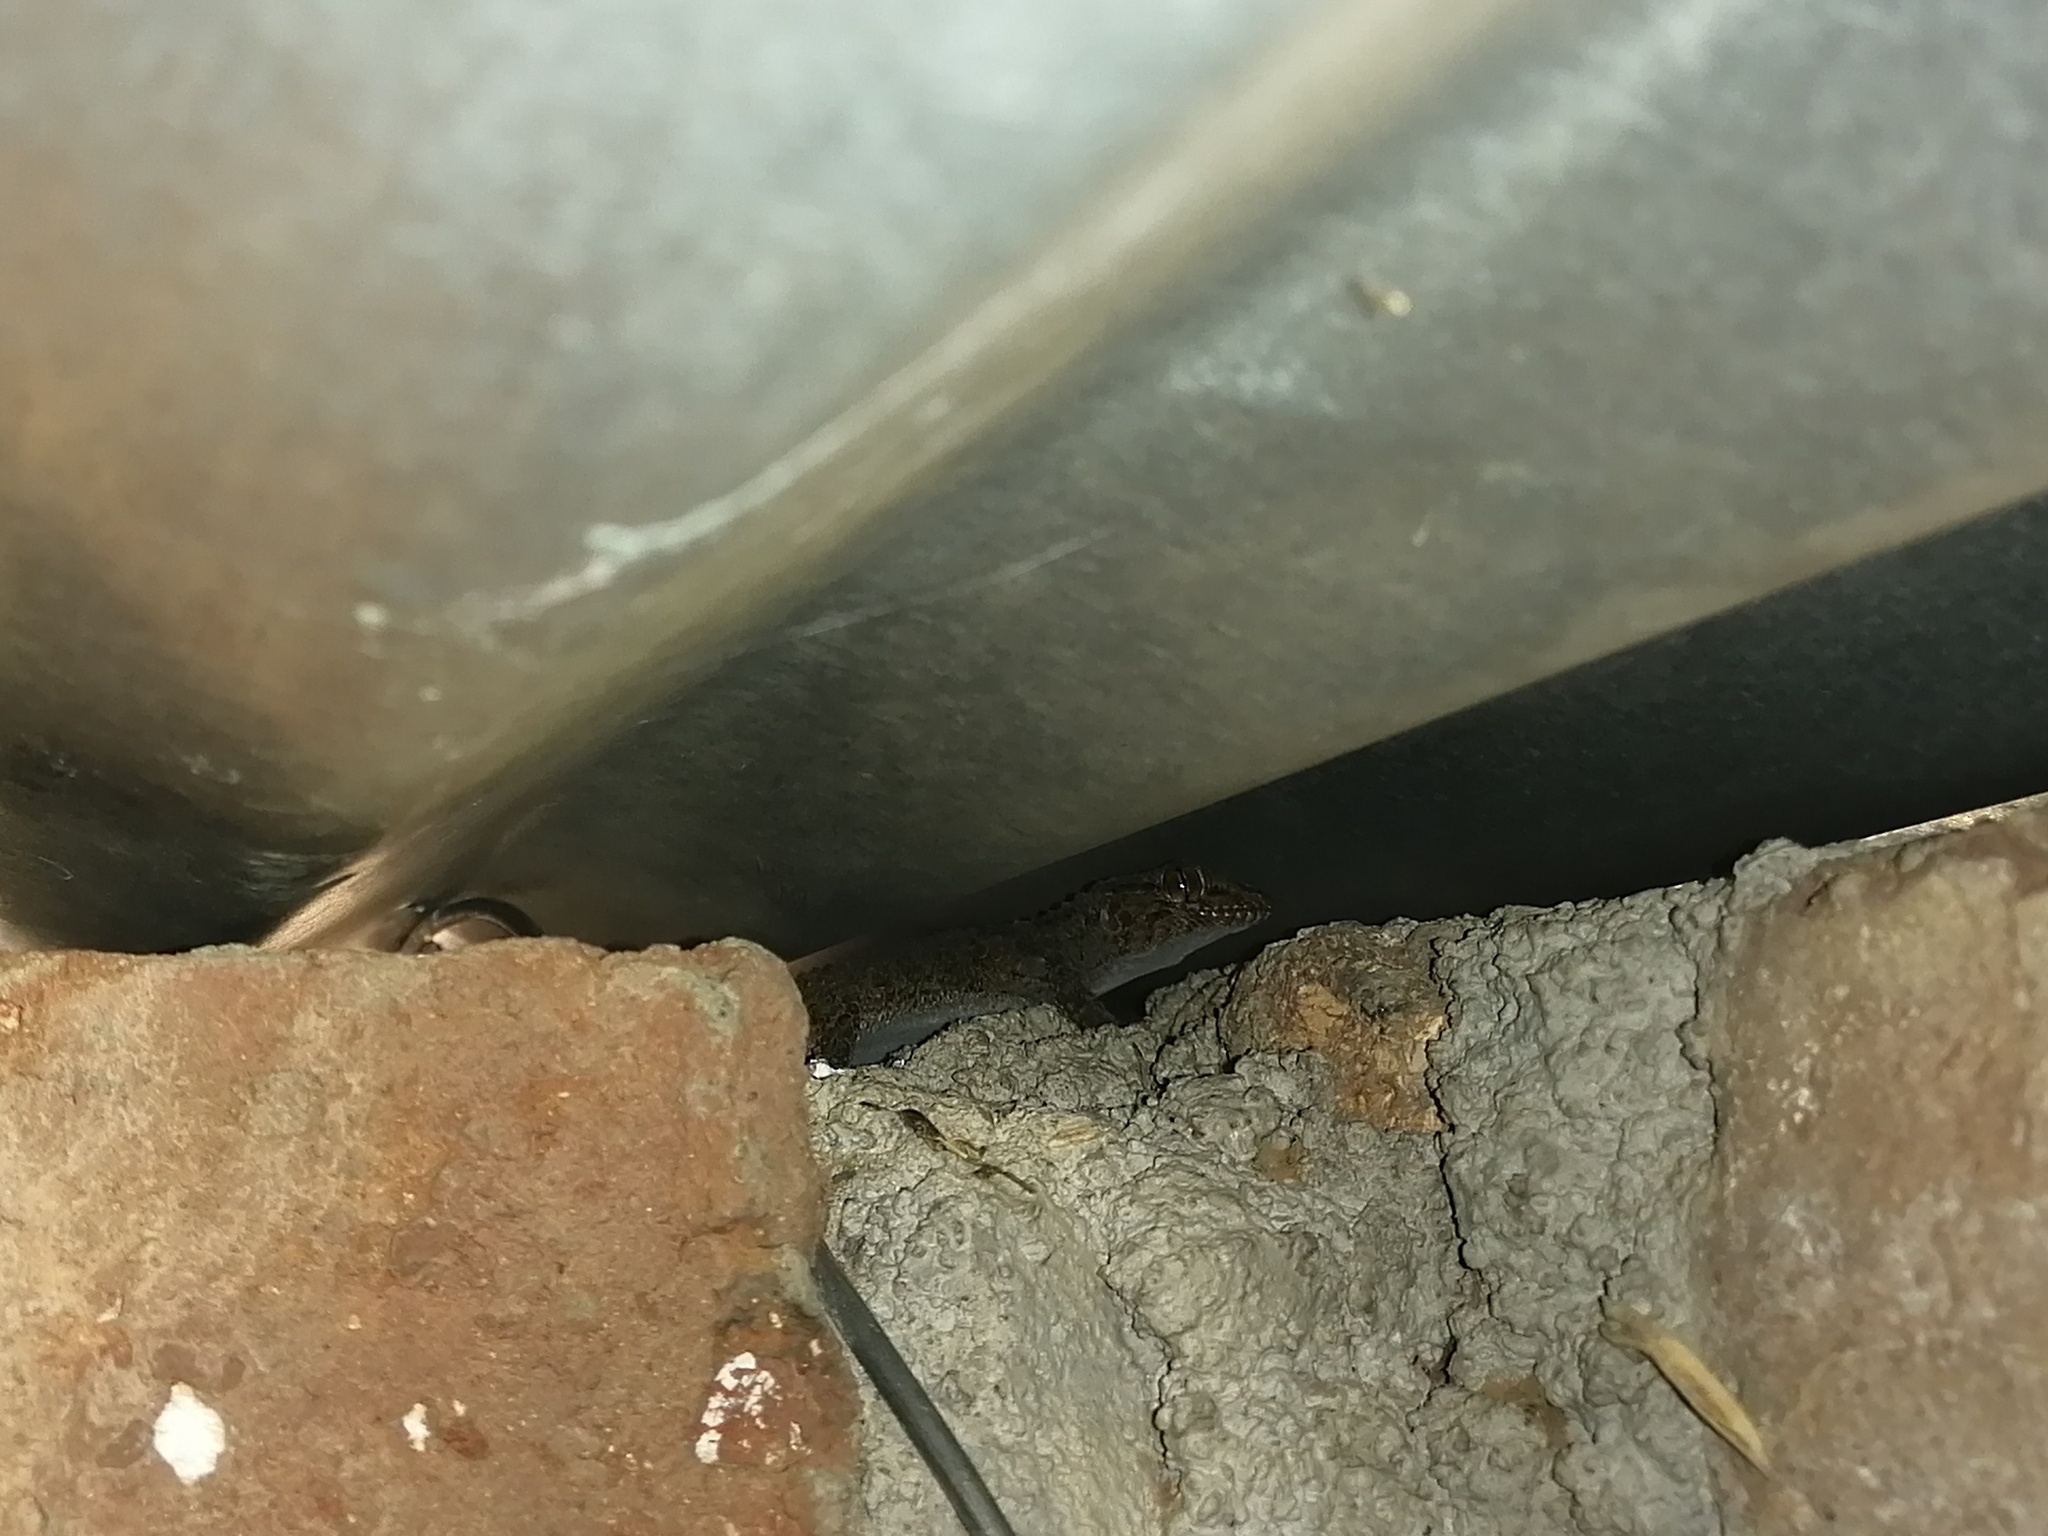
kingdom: Animalia
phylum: Chordata
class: Squamata
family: Gekkonidae
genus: Chondrodactylus
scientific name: Chondrodactylus bibronii
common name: Bibron's gecko
